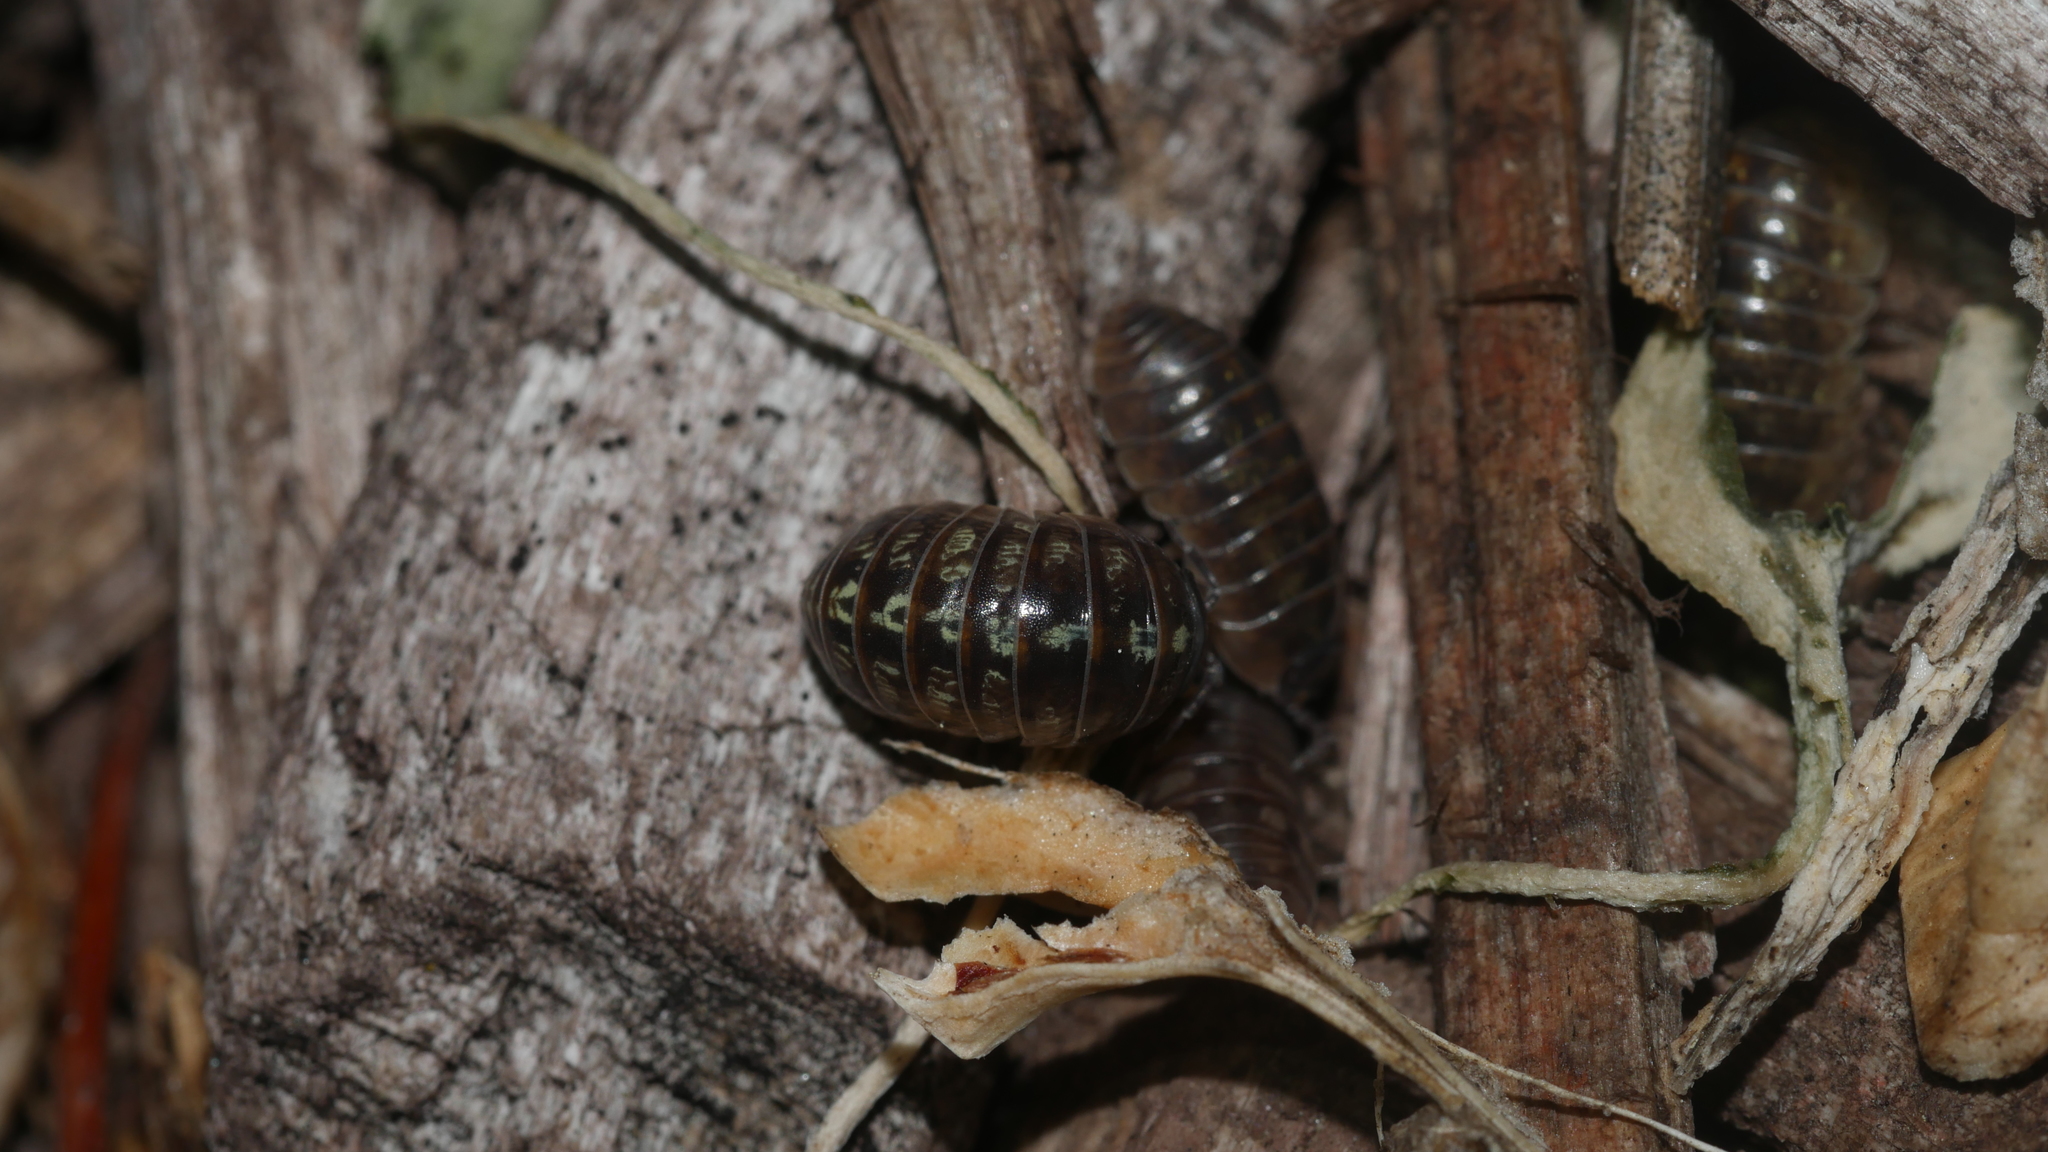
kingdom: Animalia
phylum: Arthropoda
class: Malacostraca
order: Isopoda
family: Armadillidiidae
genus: Armadillidium
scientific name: Armadillidium vulgare
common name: Common pill woodlouse
